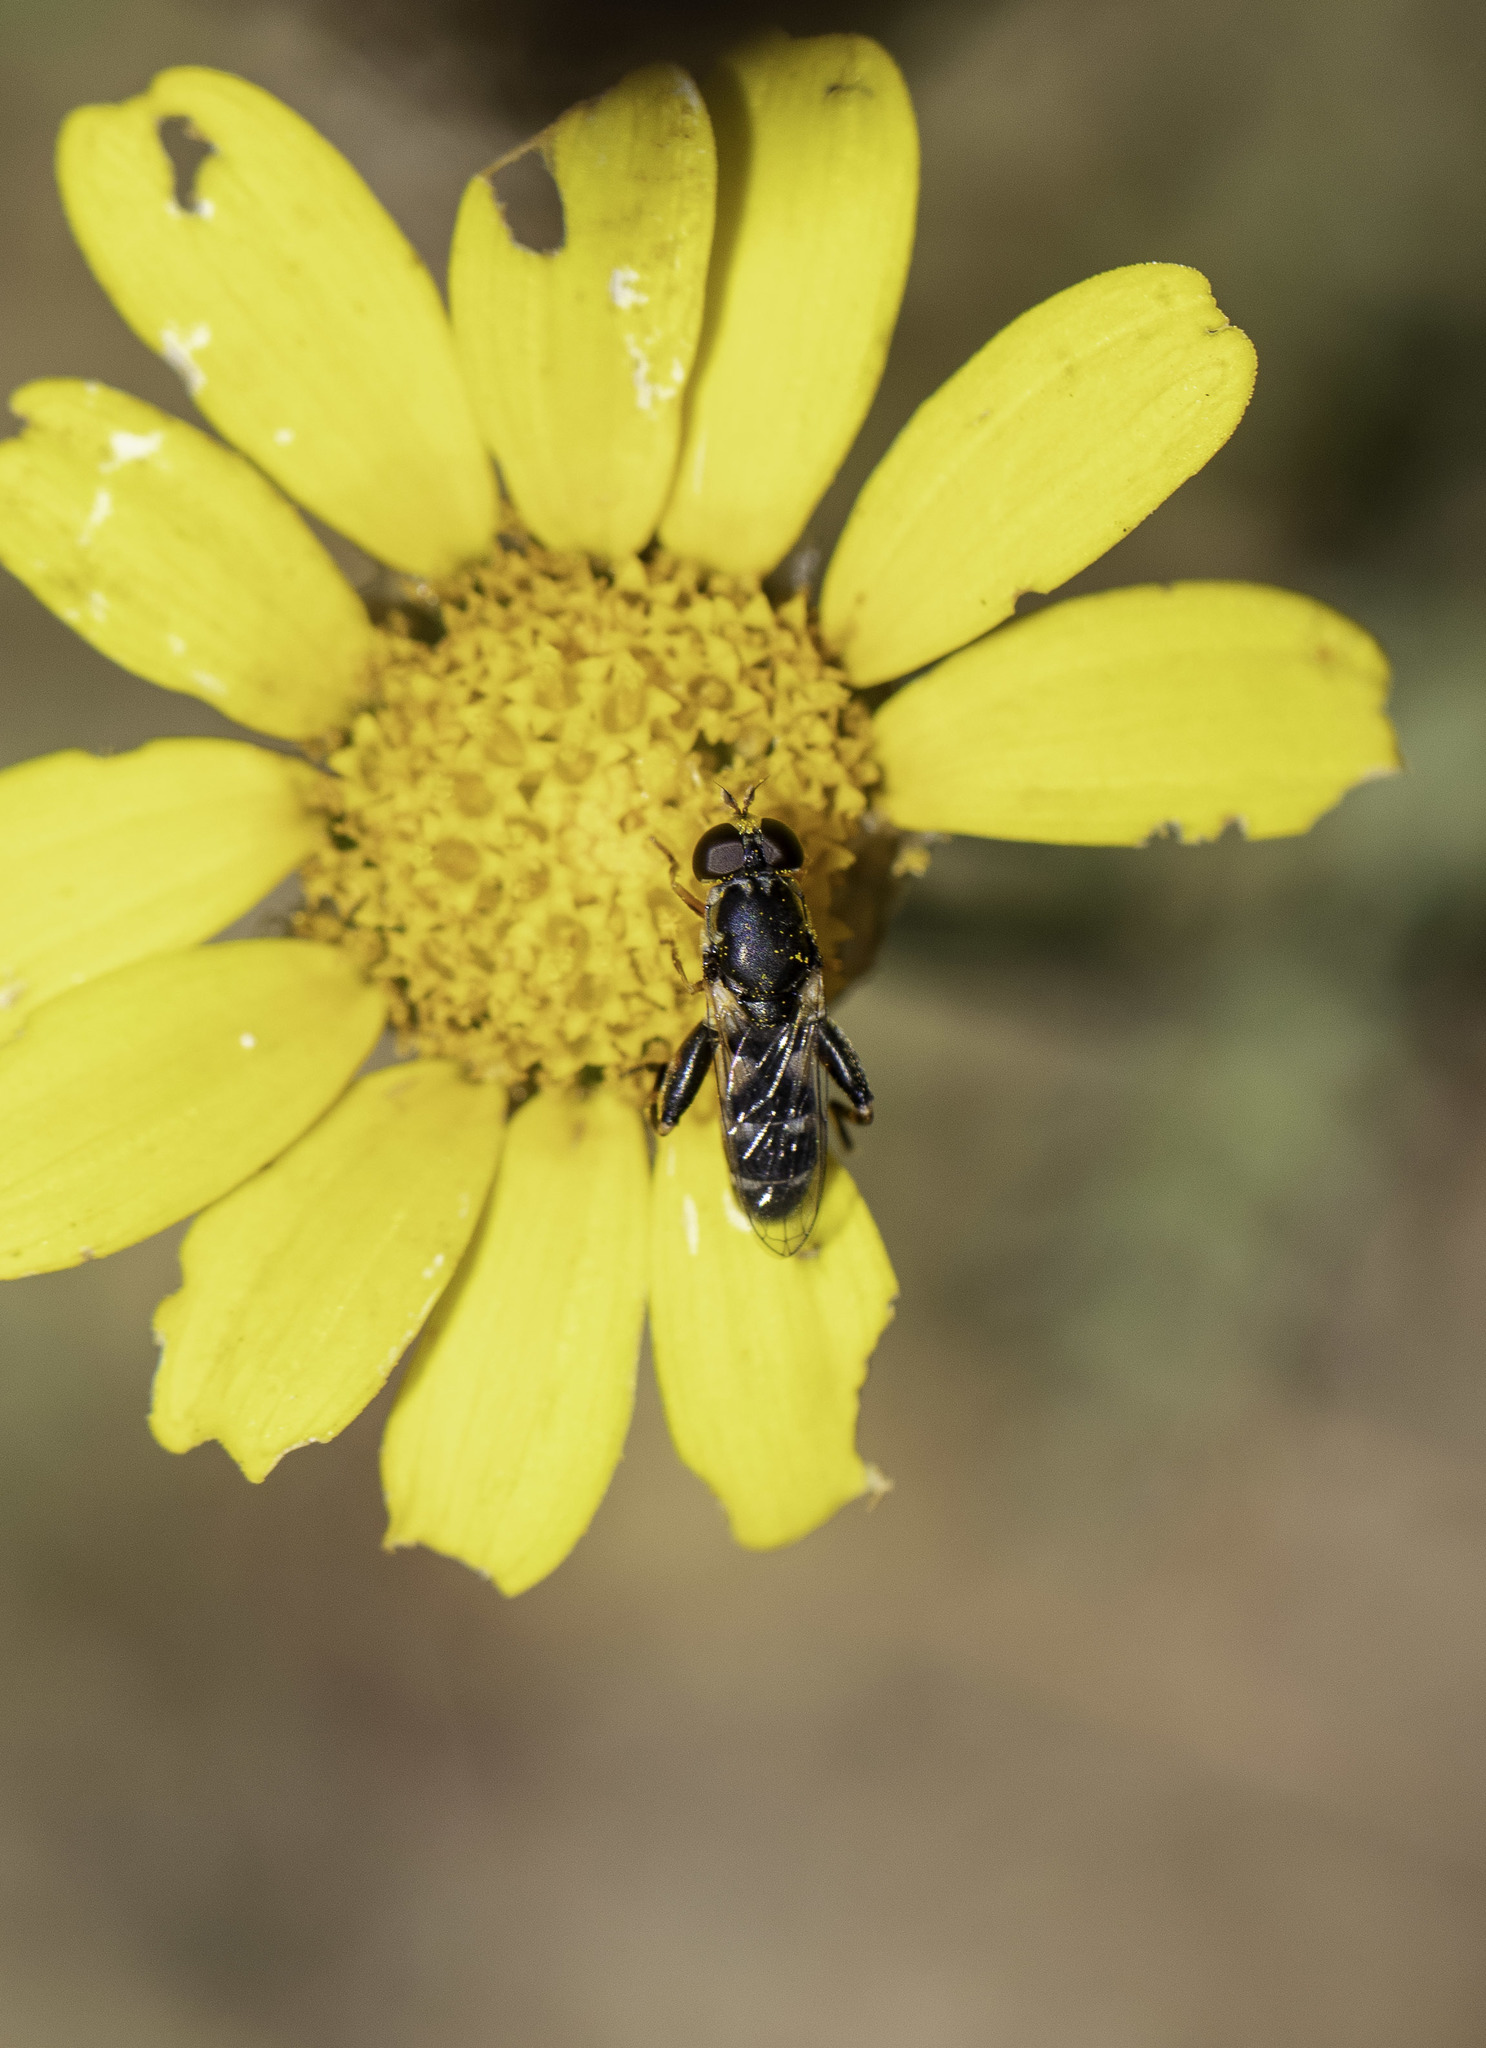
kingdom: Animalia
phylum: Arthropoda
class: Insecta
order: Diptera
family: Syrphidae
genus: Syritta
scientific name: Syritta pipiens
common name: Hover fly
